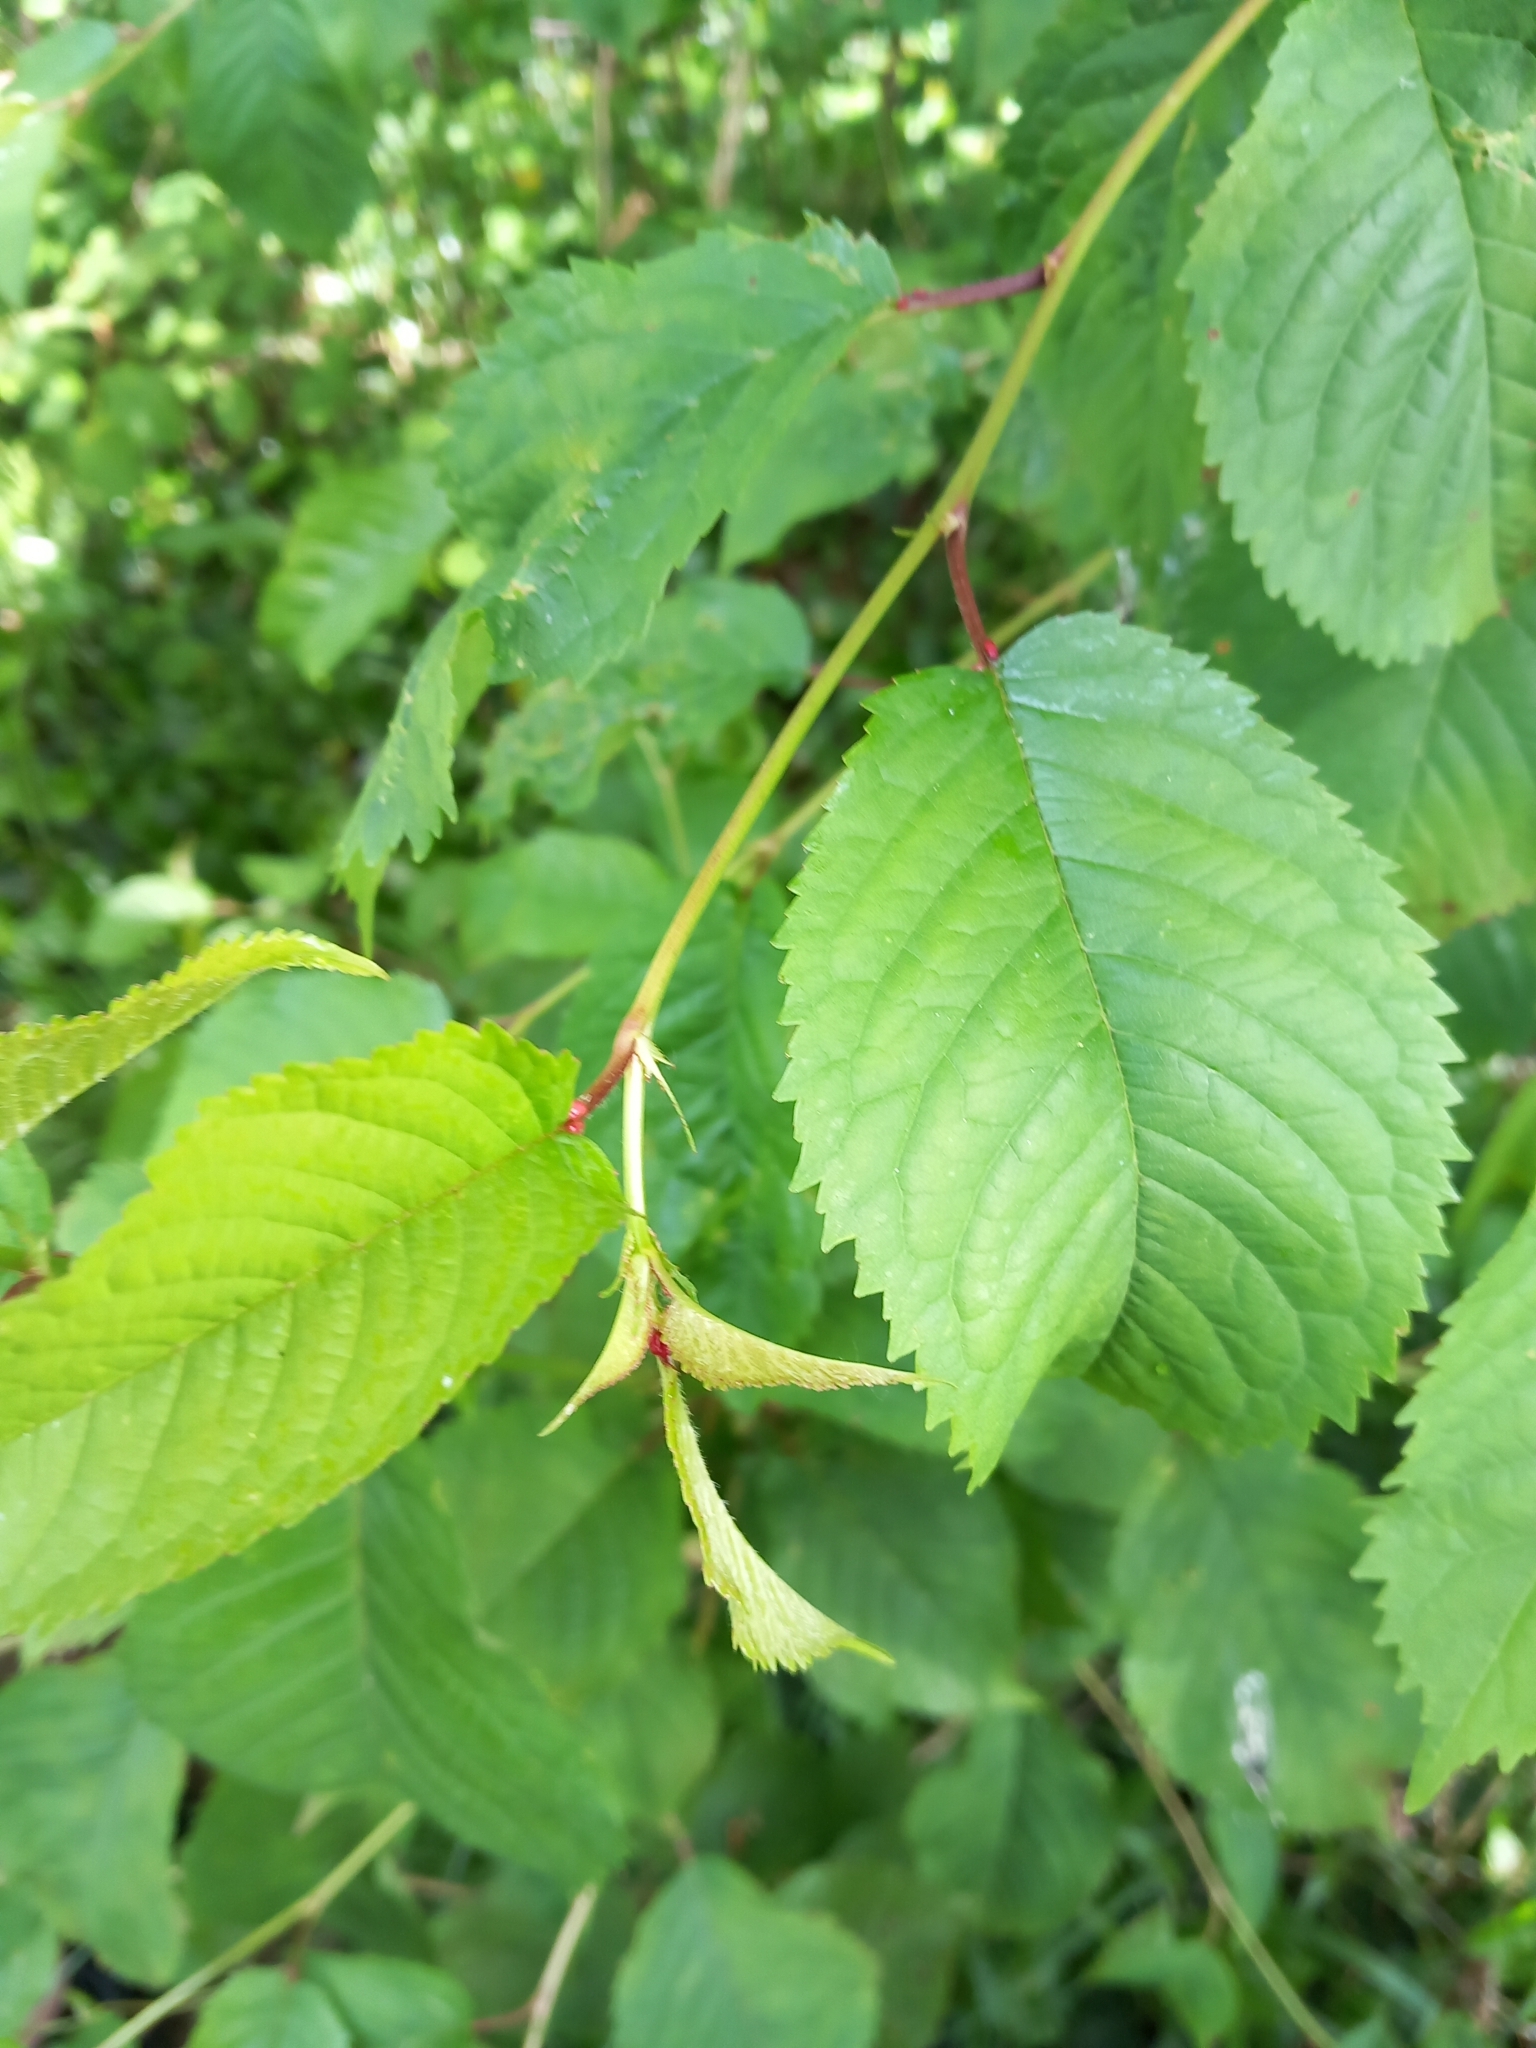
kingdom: Plantae
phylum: Tracheophyta
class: Magnoliopsida
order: Rosales
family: Rosaceae
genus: Prunus
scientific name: Prunus avium
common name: Sweet cherry
